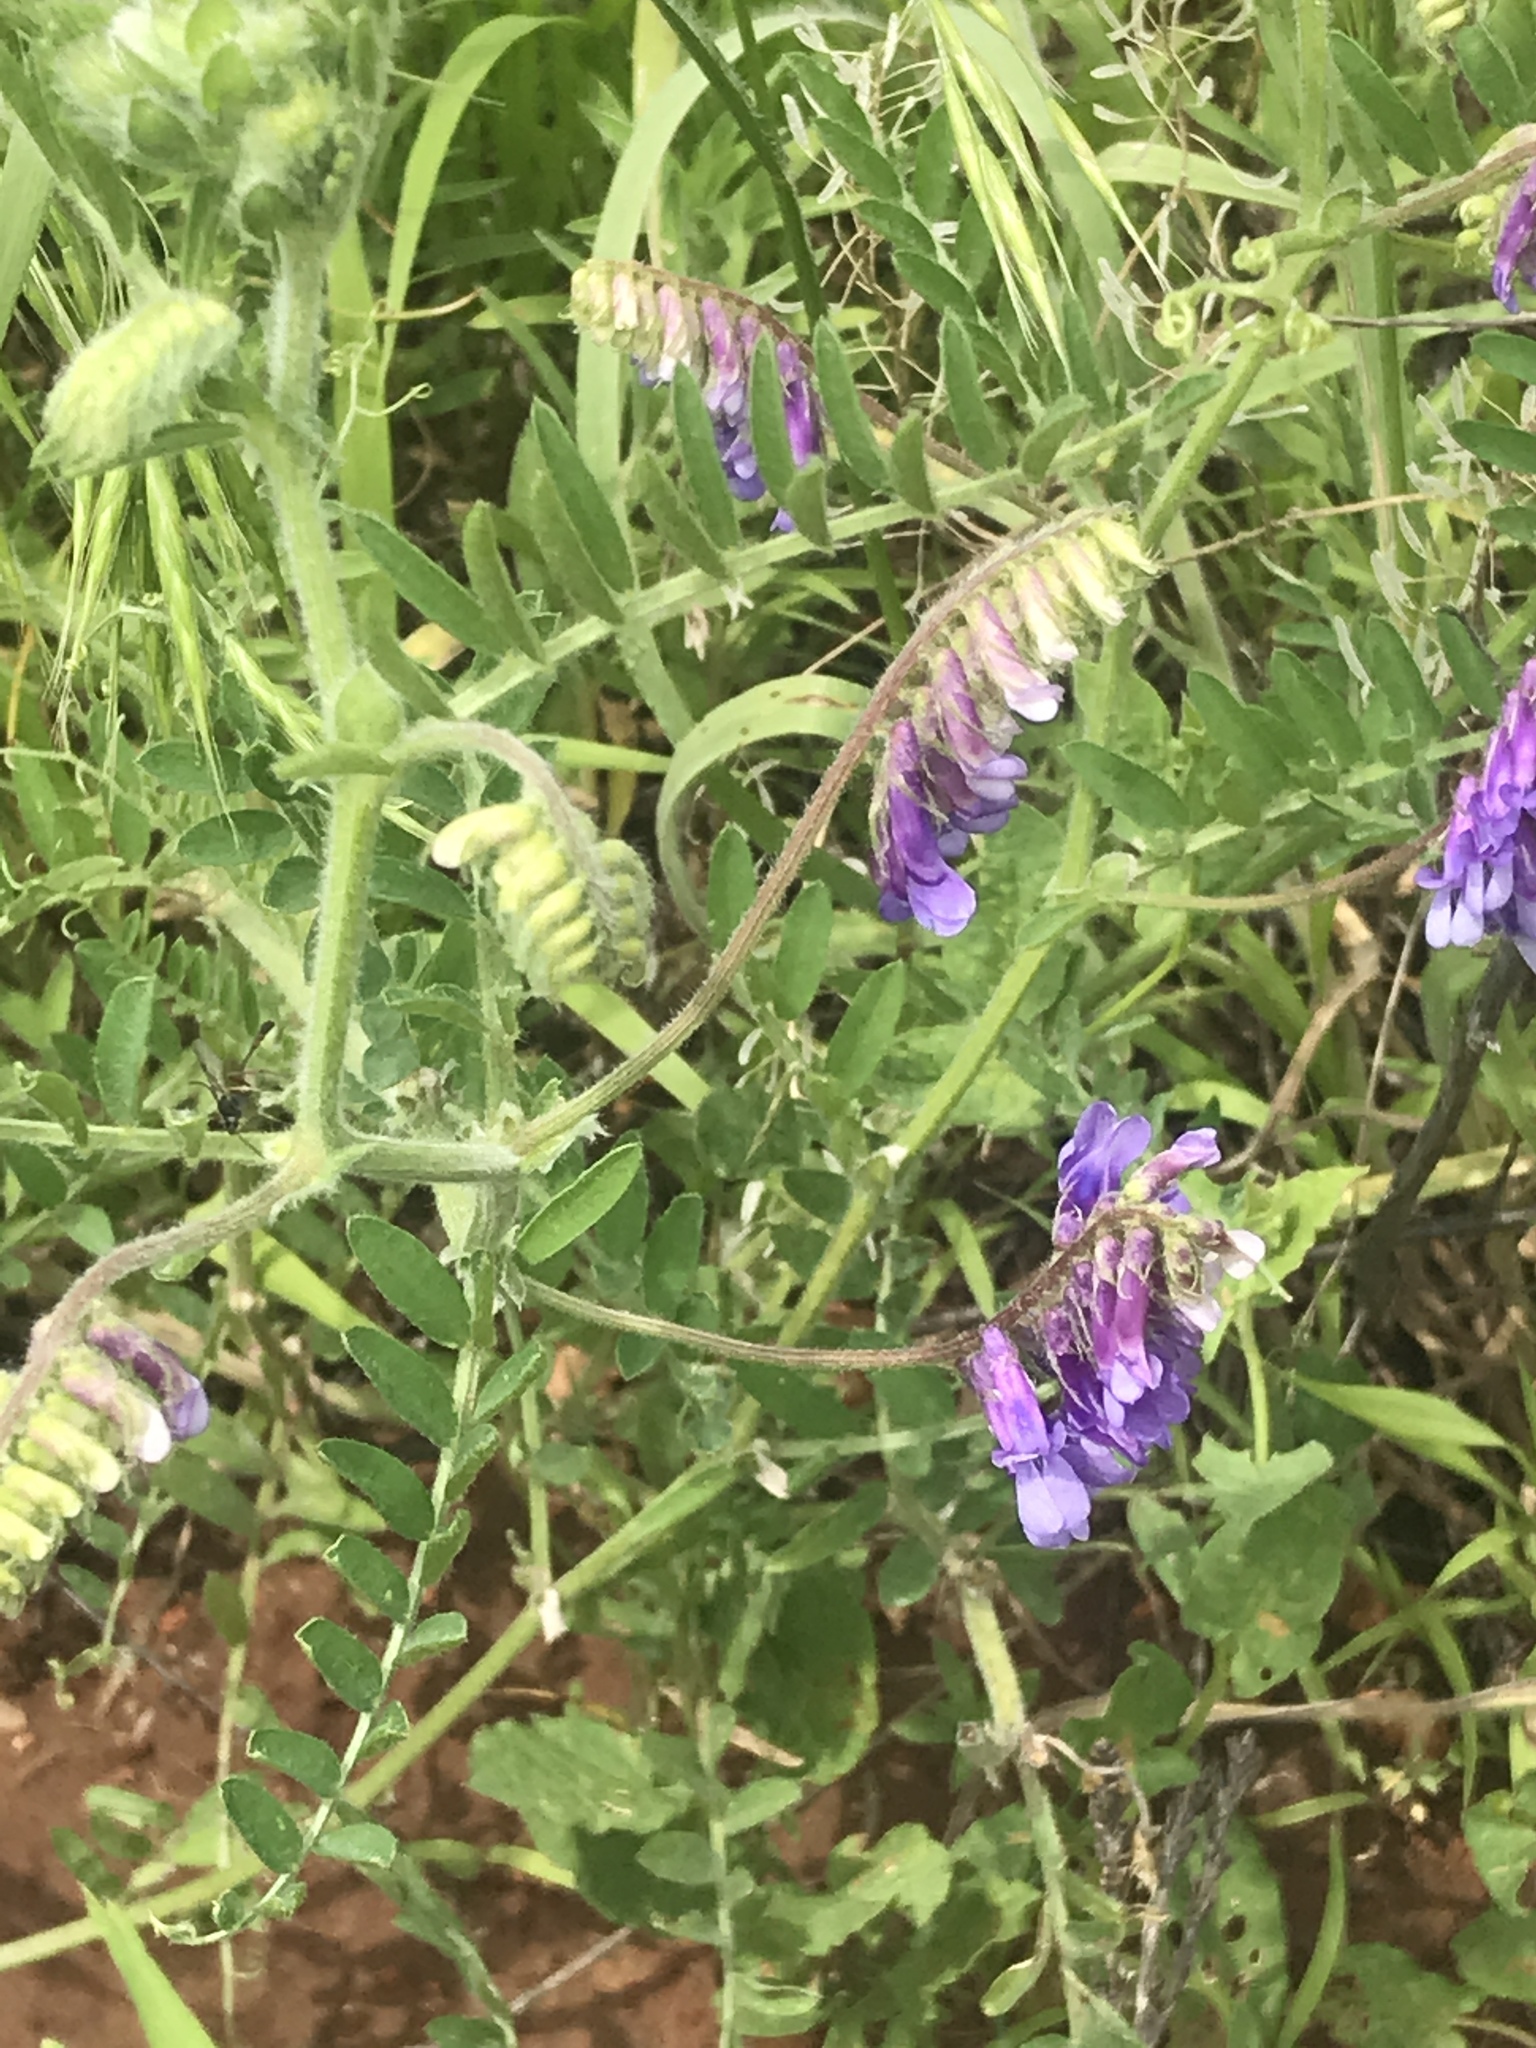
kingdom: Plantae
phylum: Tracheophyta
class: Magnoliopsida
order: Fabales
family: Fabaceae
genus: Vicia
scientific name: Vicia villosa
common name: Fodder vetch
